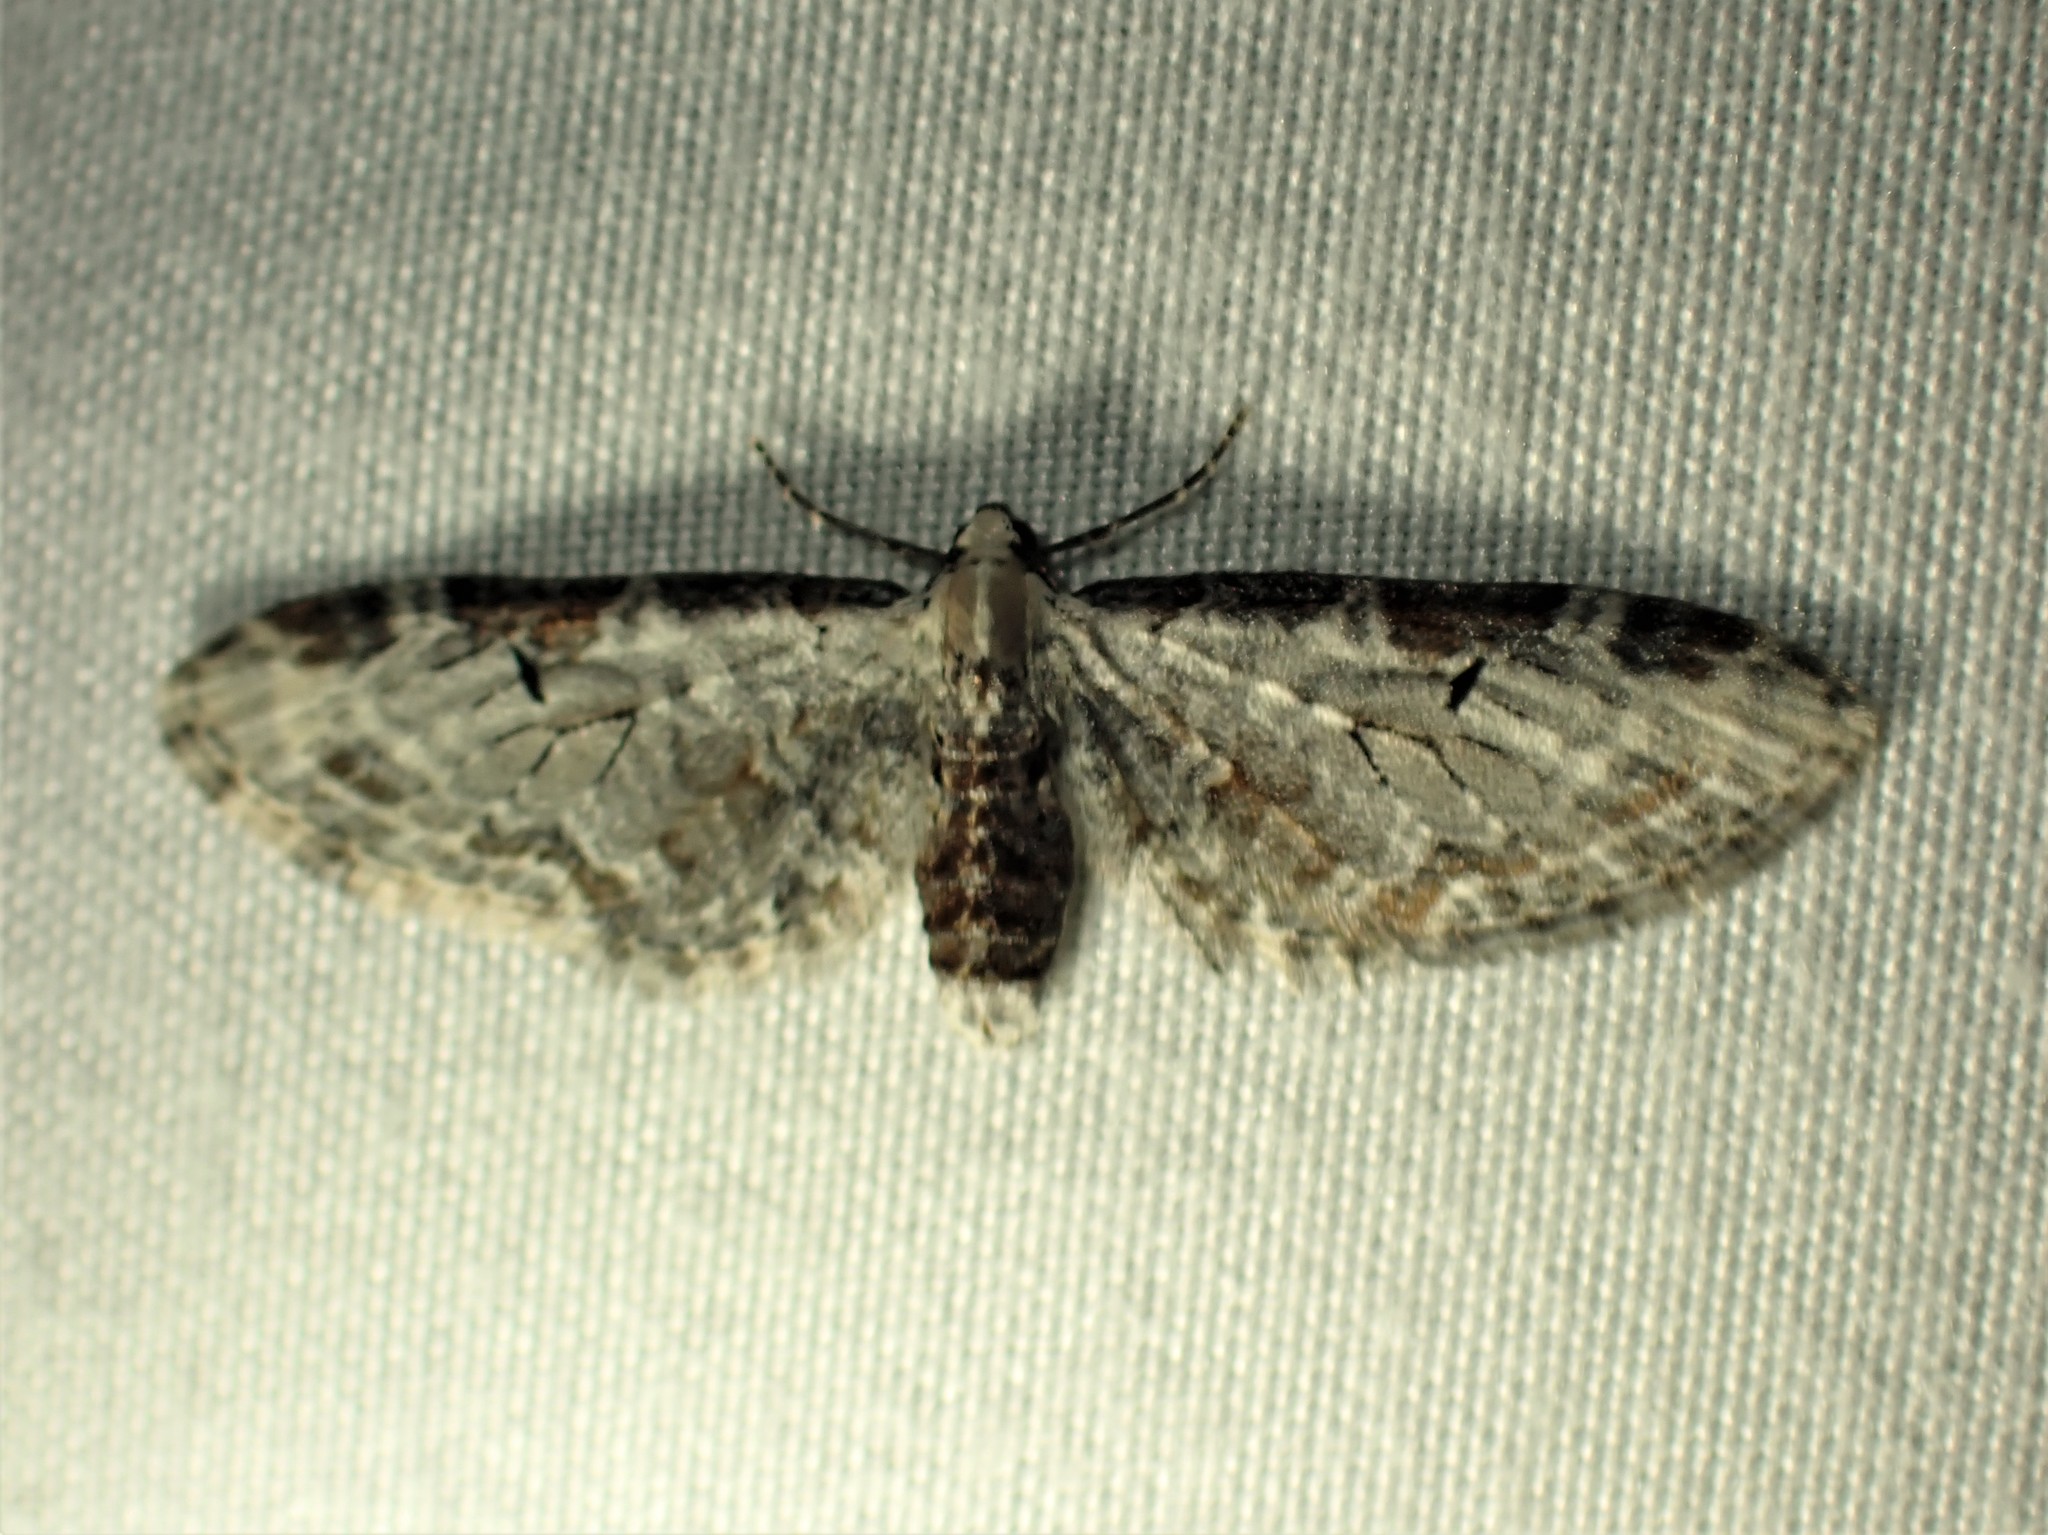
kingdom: Animalia
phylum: Arthropoda
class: Insecta
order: Lepidoptera
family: Geometridae
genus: Eupithecia
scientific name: Eupithecia ravocostaliata
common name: Great varigated pug
